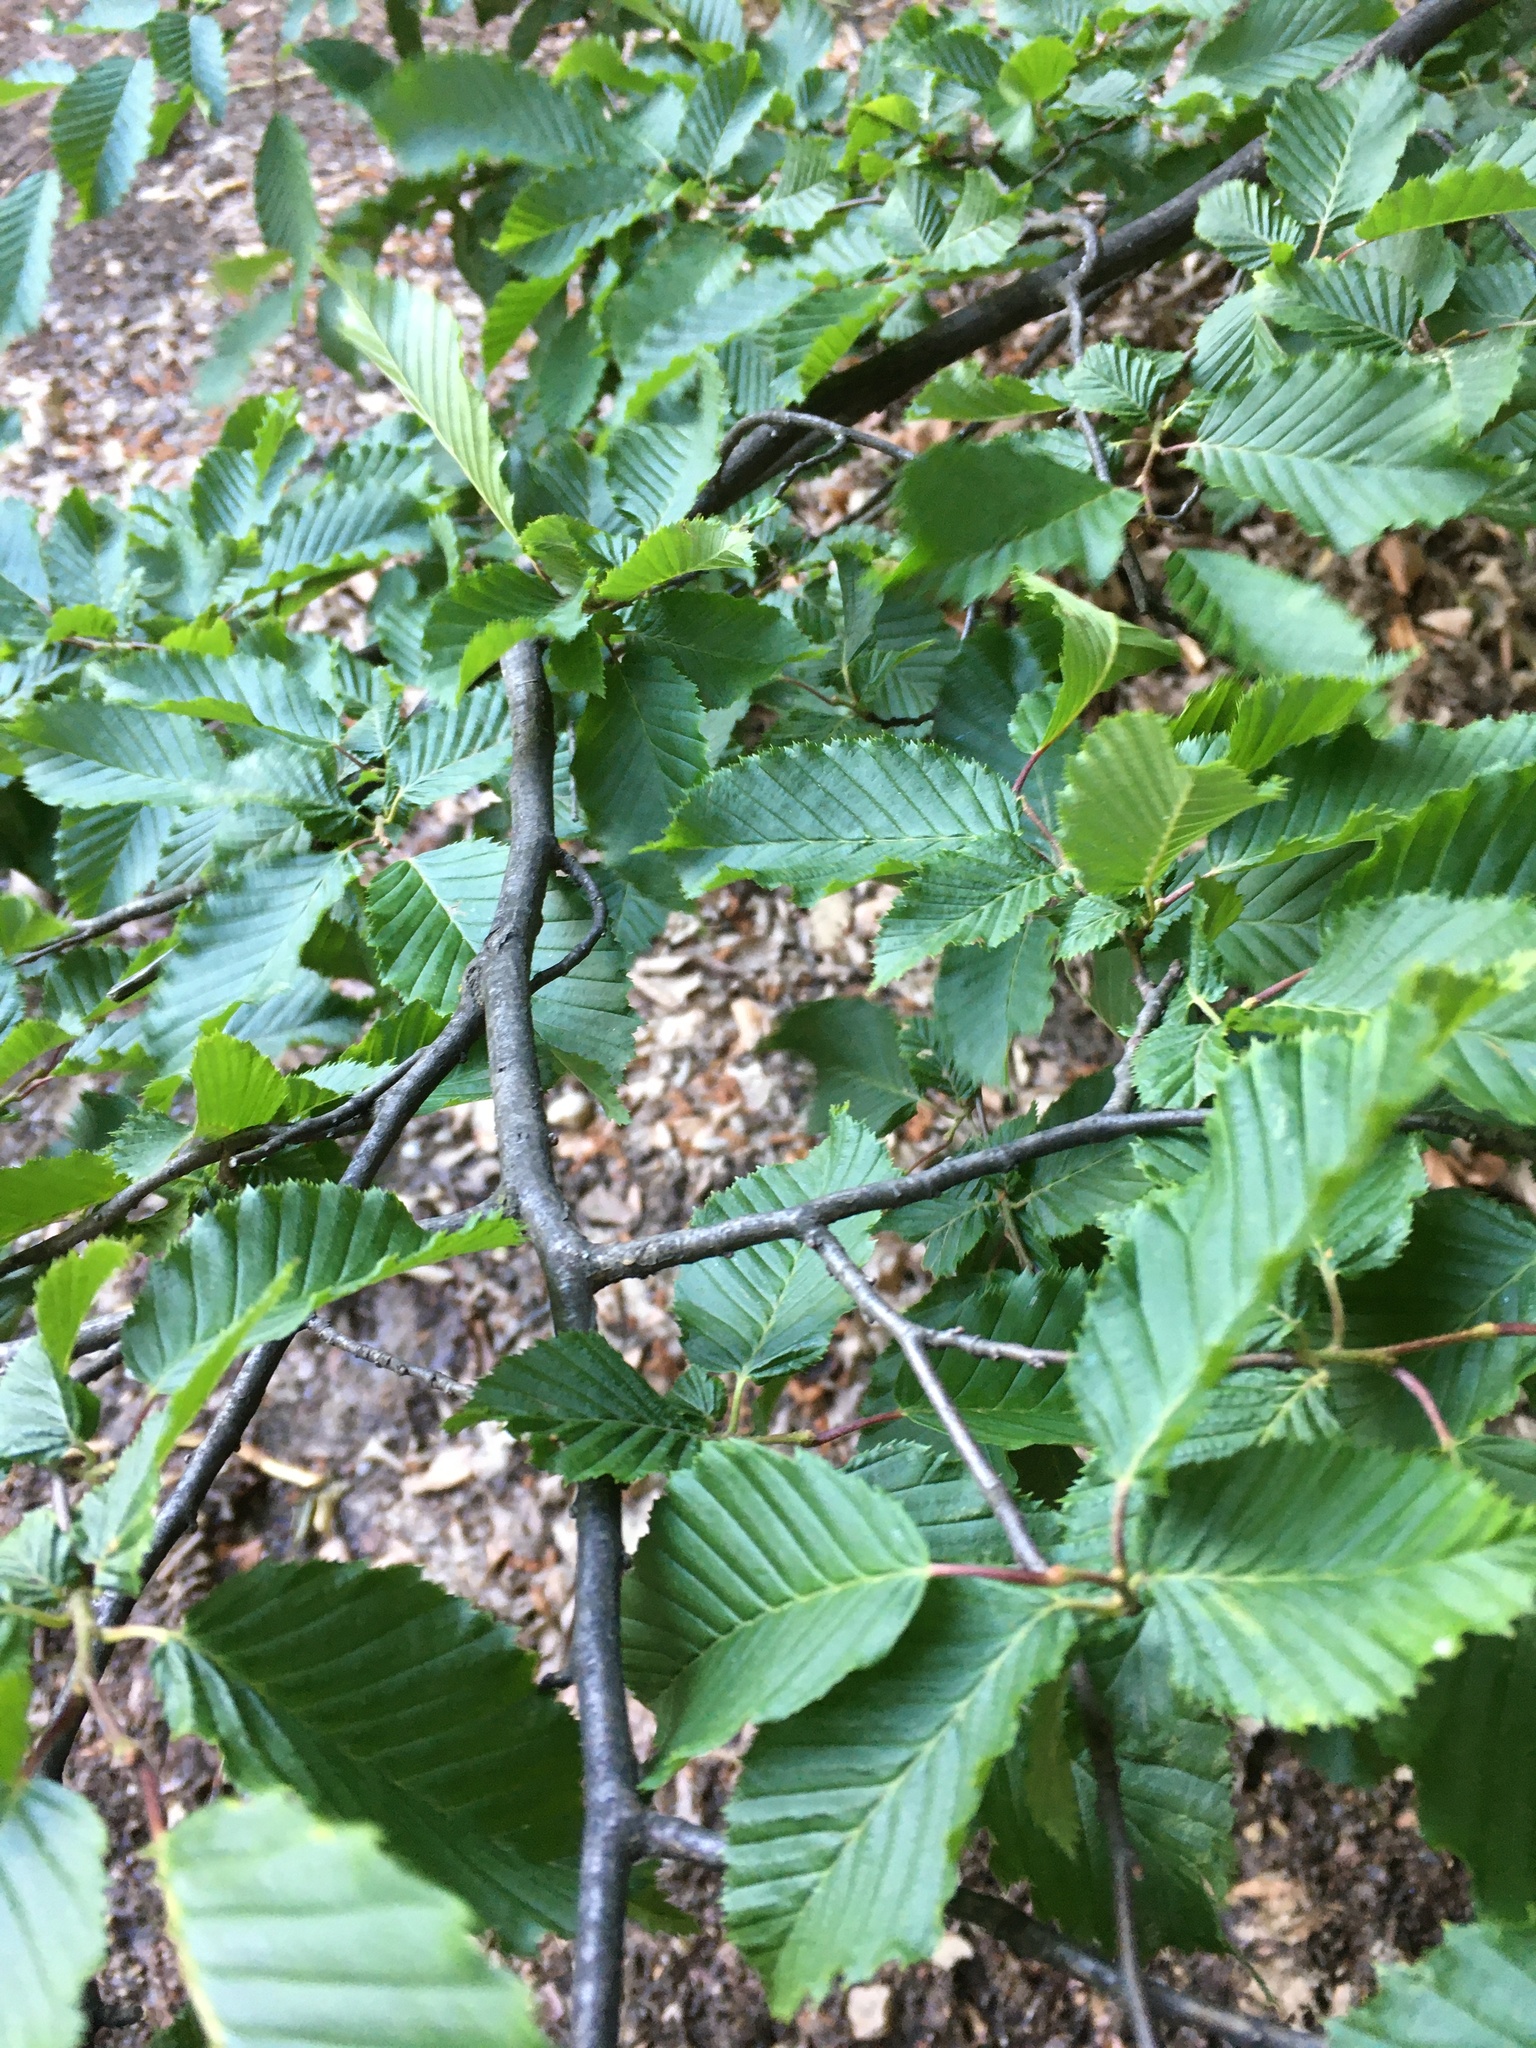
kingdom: Plantae
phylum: Tracheophyta
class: Magnoliopsida
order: Fagales
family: Betulaceae
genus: Carpinus
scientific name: Carpinus betulus
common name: Hornbeam
